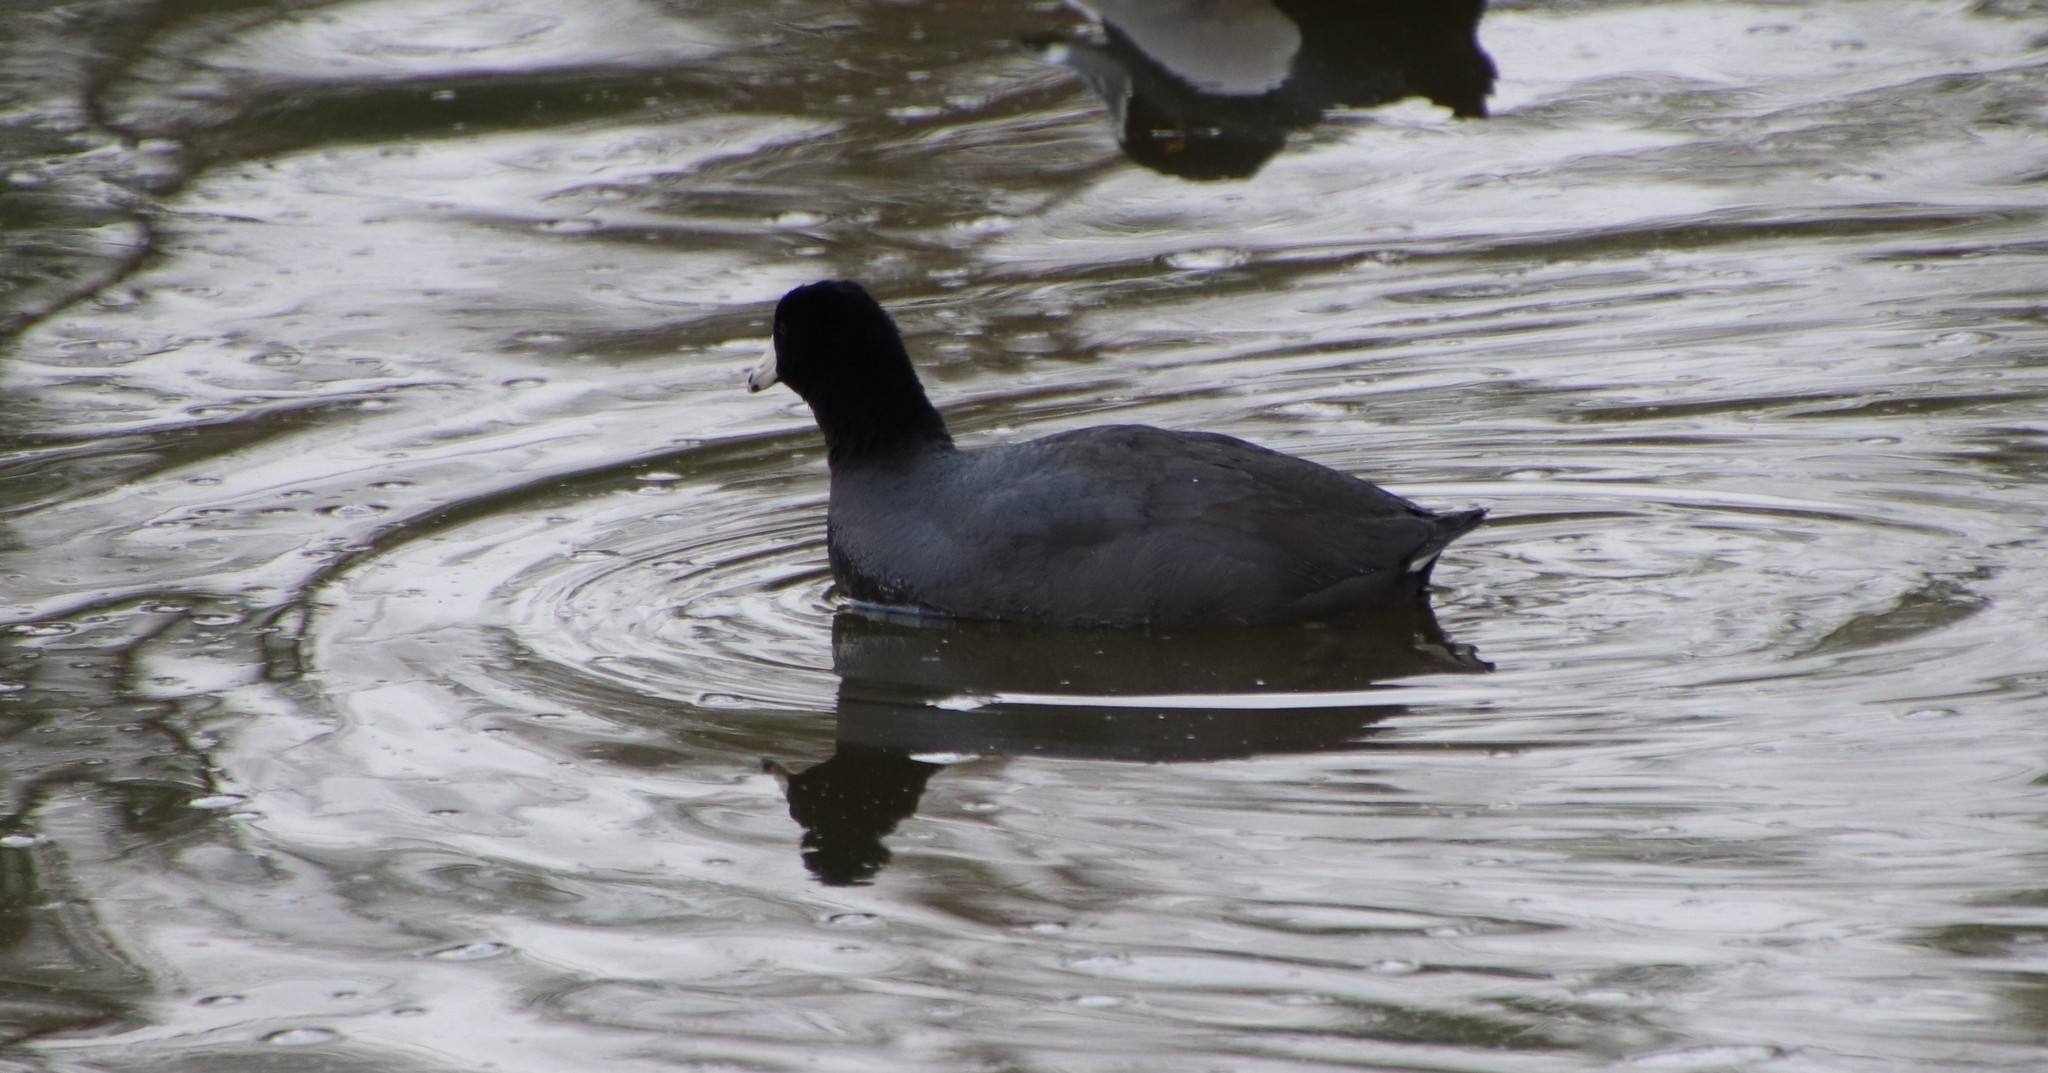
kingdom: Animalia
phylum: Chordata
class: Aves
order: Gruiformes
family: Rallidae
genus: Fulica
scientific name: Fulica americana
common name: American coot
